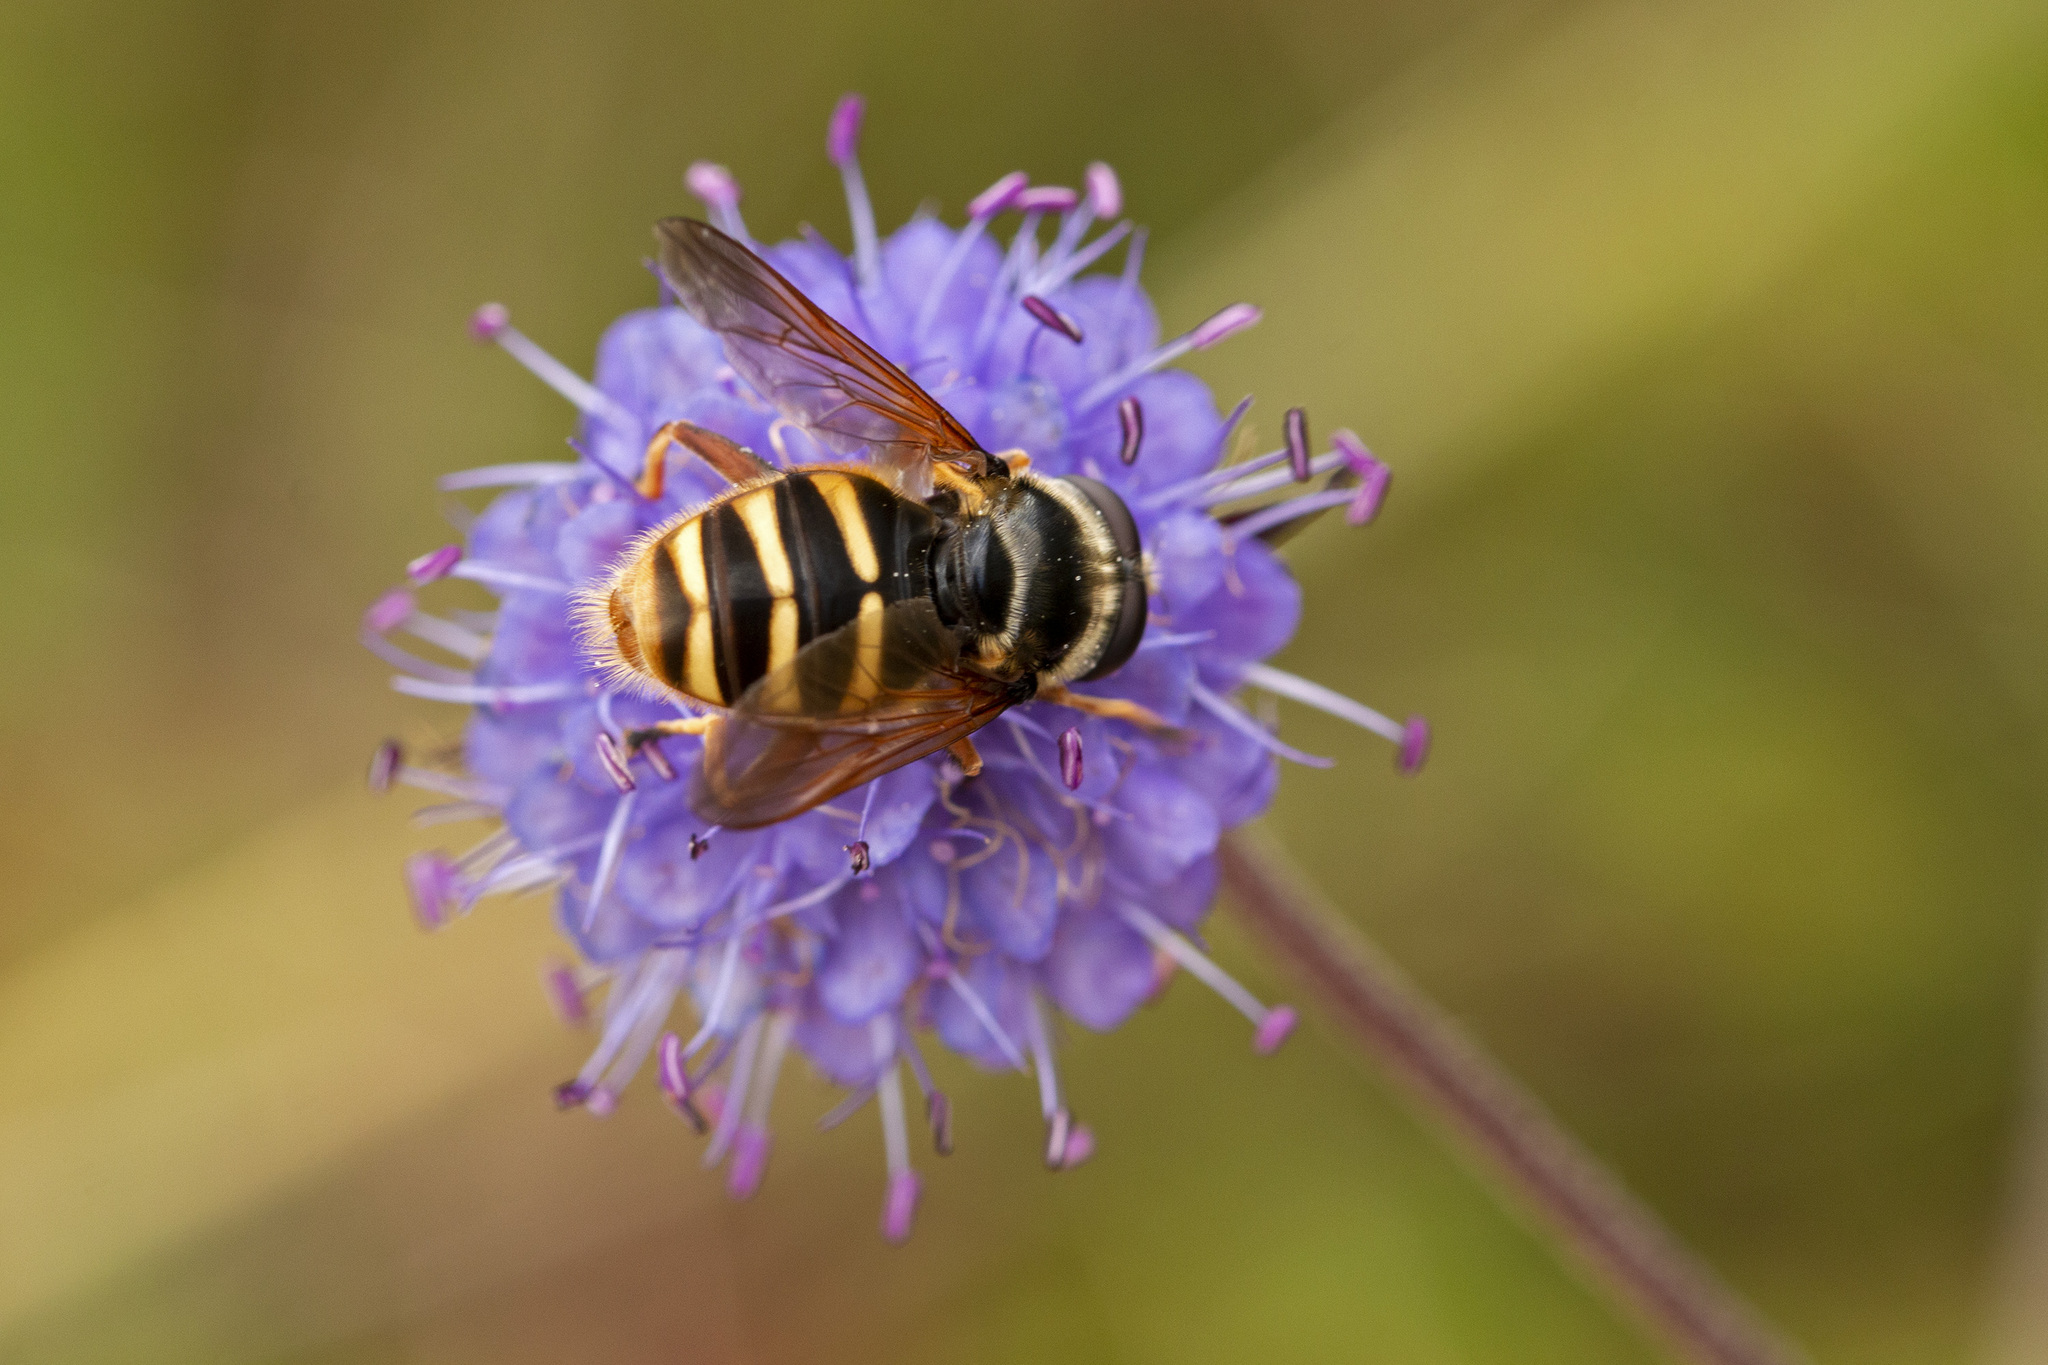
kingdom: Animalia
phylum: Arthropoda
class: Insecta
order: Diptera
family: Syrphidae
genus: Sericomyia
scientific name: Sericomyia silentis
